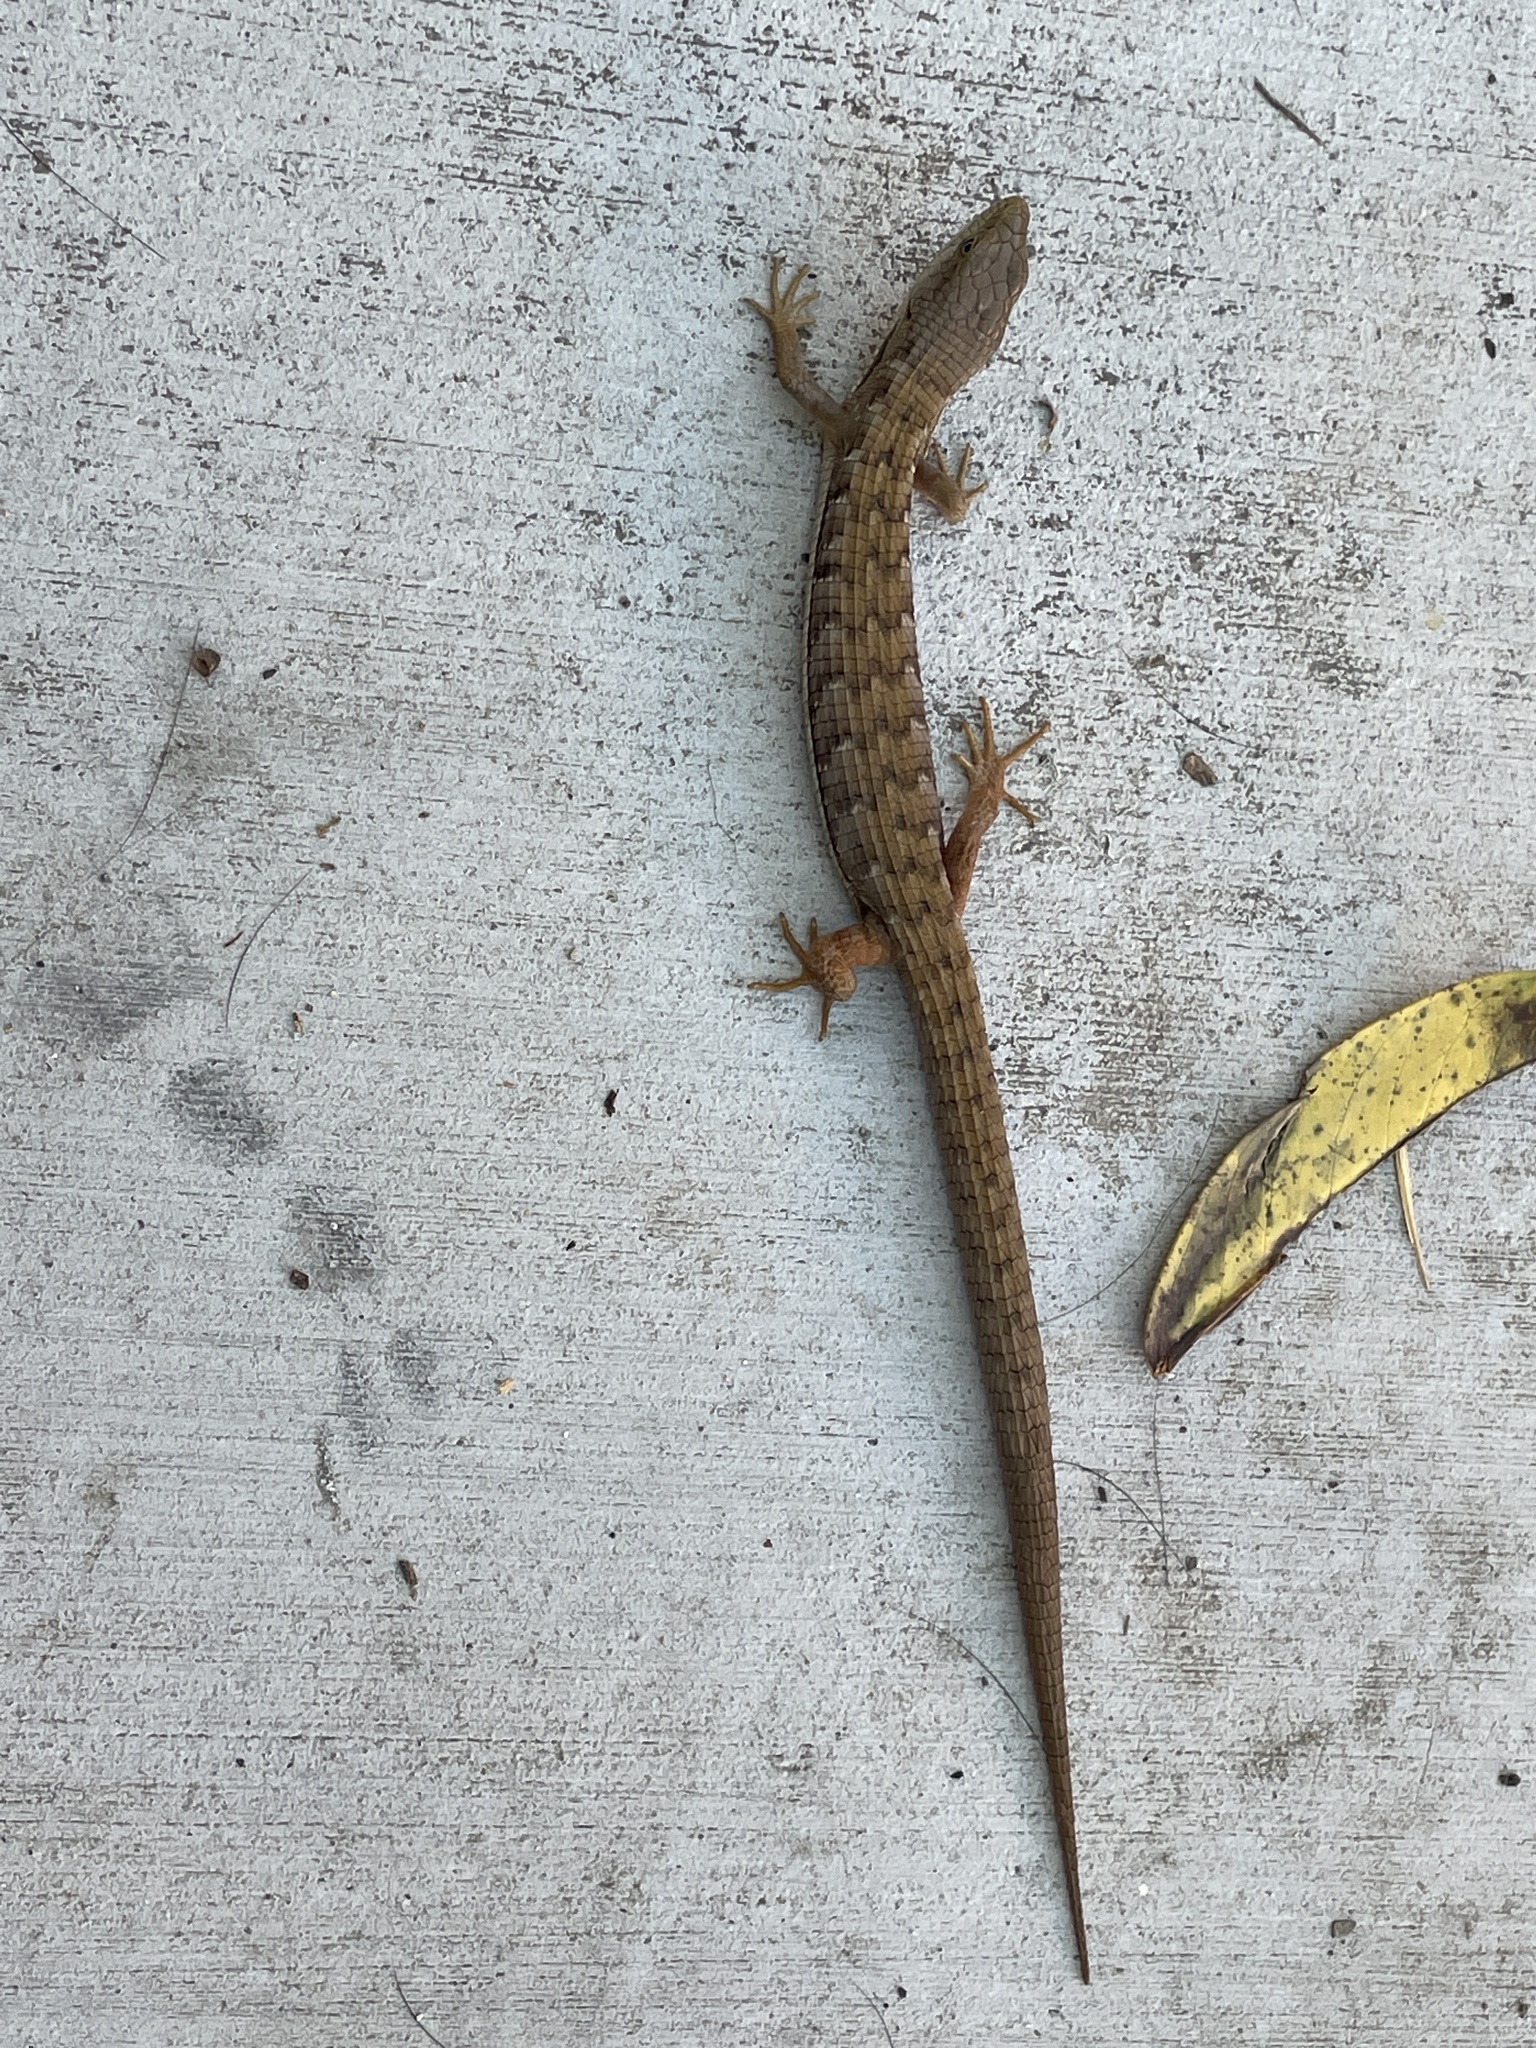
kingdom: Animalia
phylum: Chordata
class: Squamata
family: Anguidae
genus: Elgaria
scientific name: Elgaria multicarinata
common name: Southern alligator lizard
